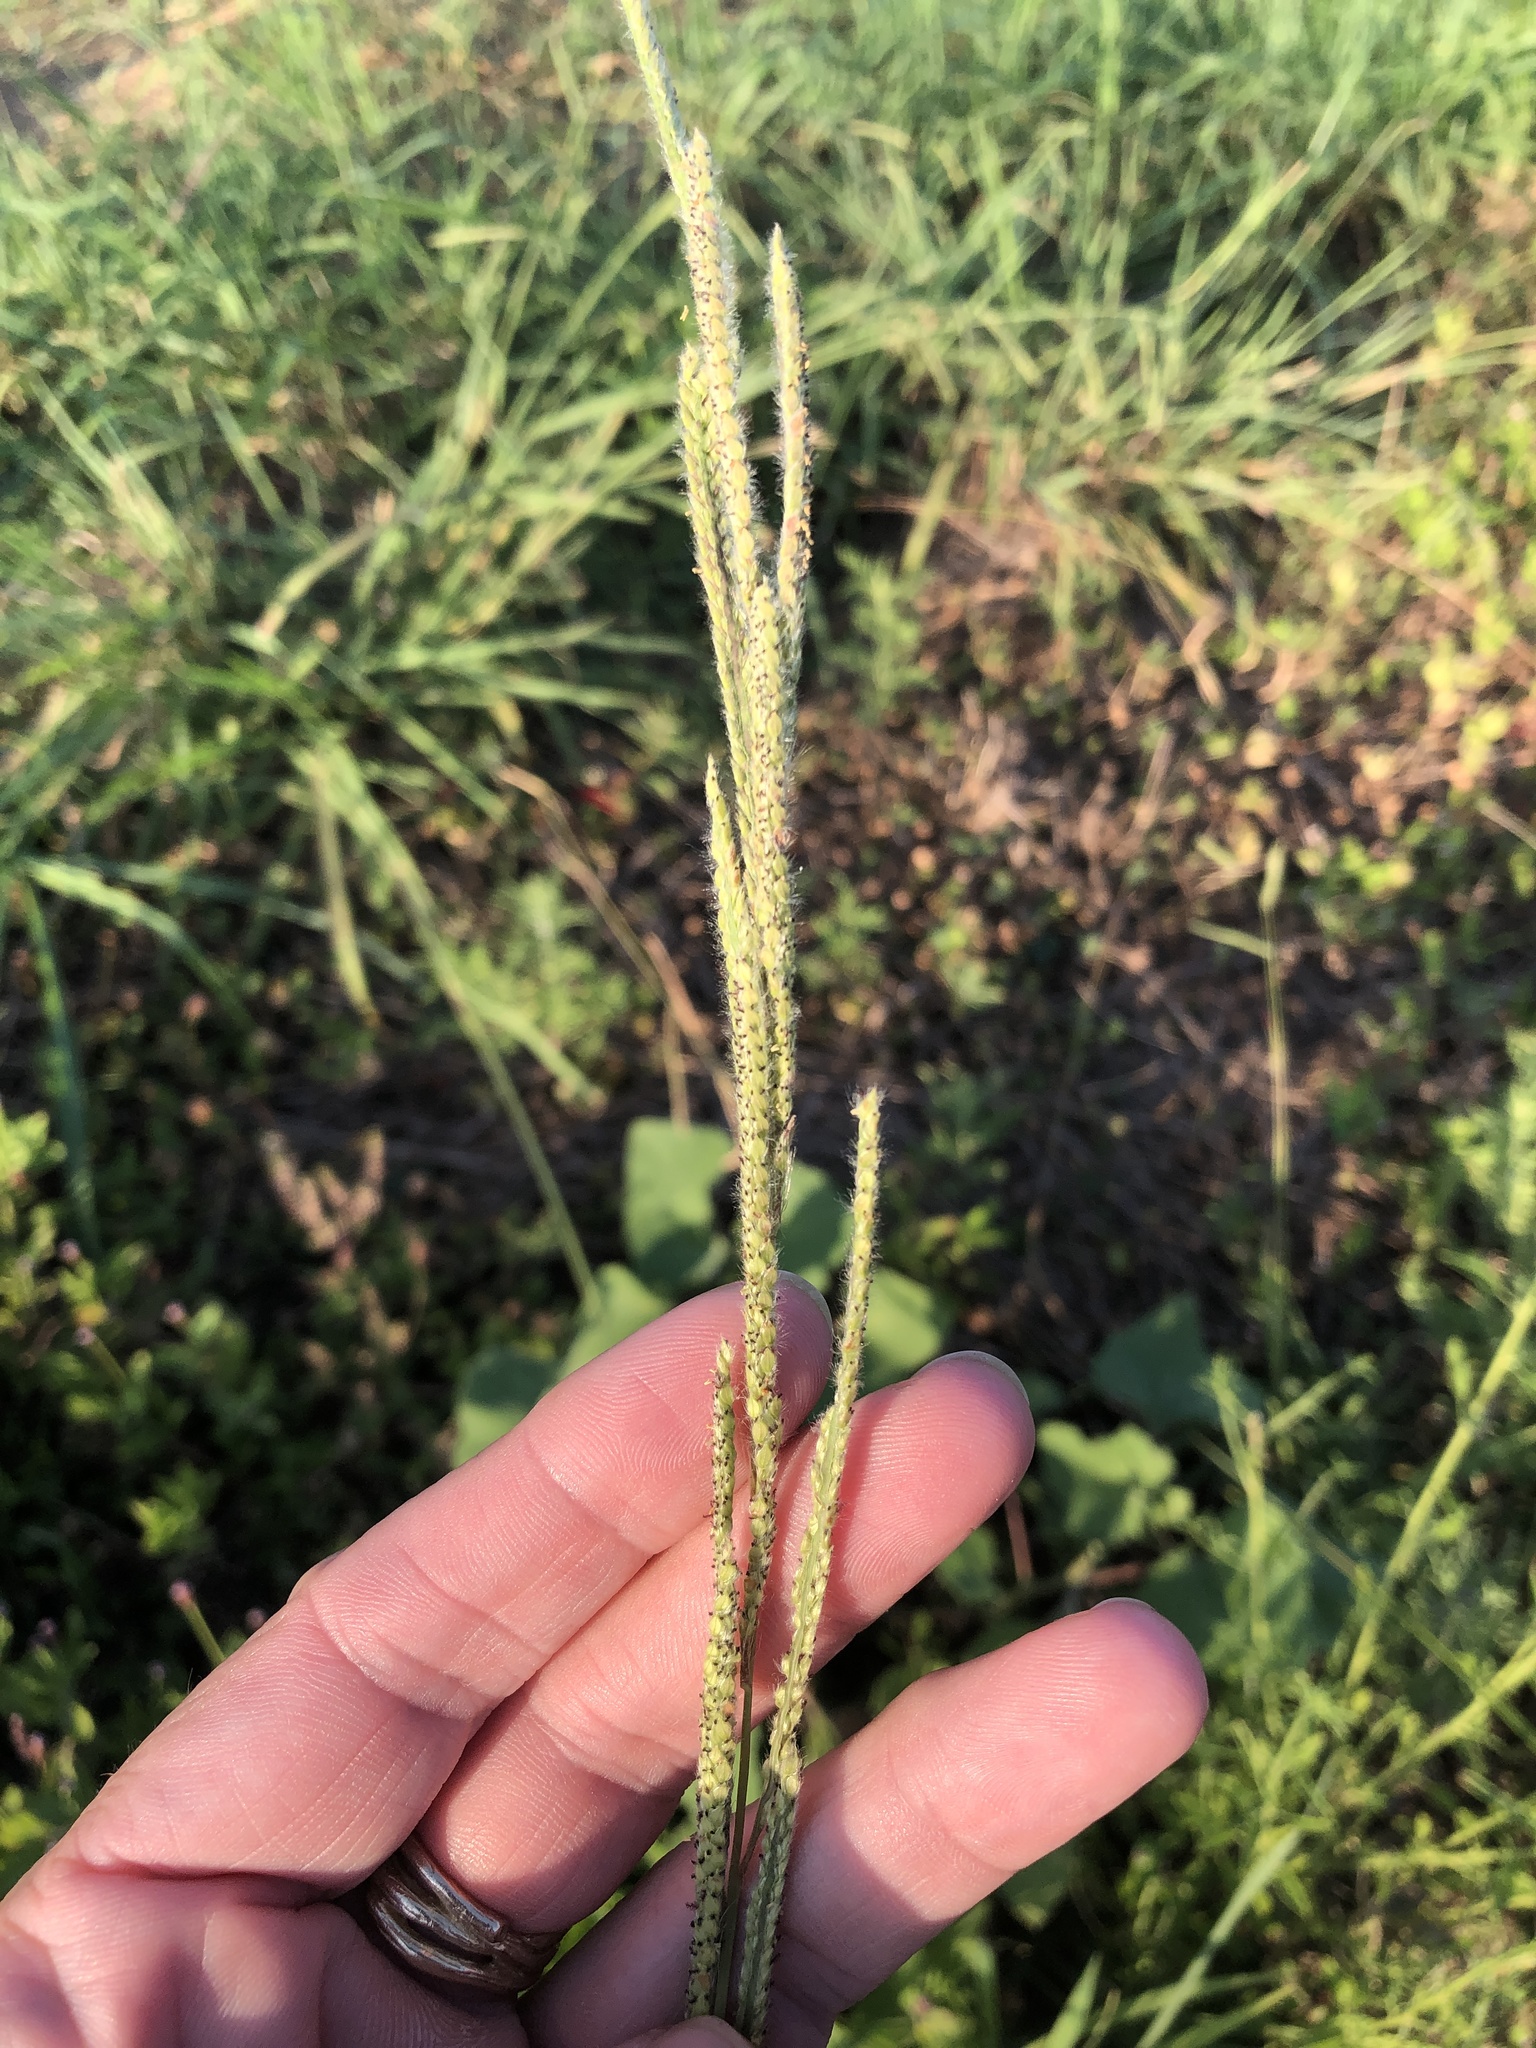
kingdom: Plantae
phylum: Tracheophyta
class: Liliopsida
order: Poales
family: Poaceae
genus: Paspalum
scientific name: Paspalum urvillei
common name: Vasey's grass
